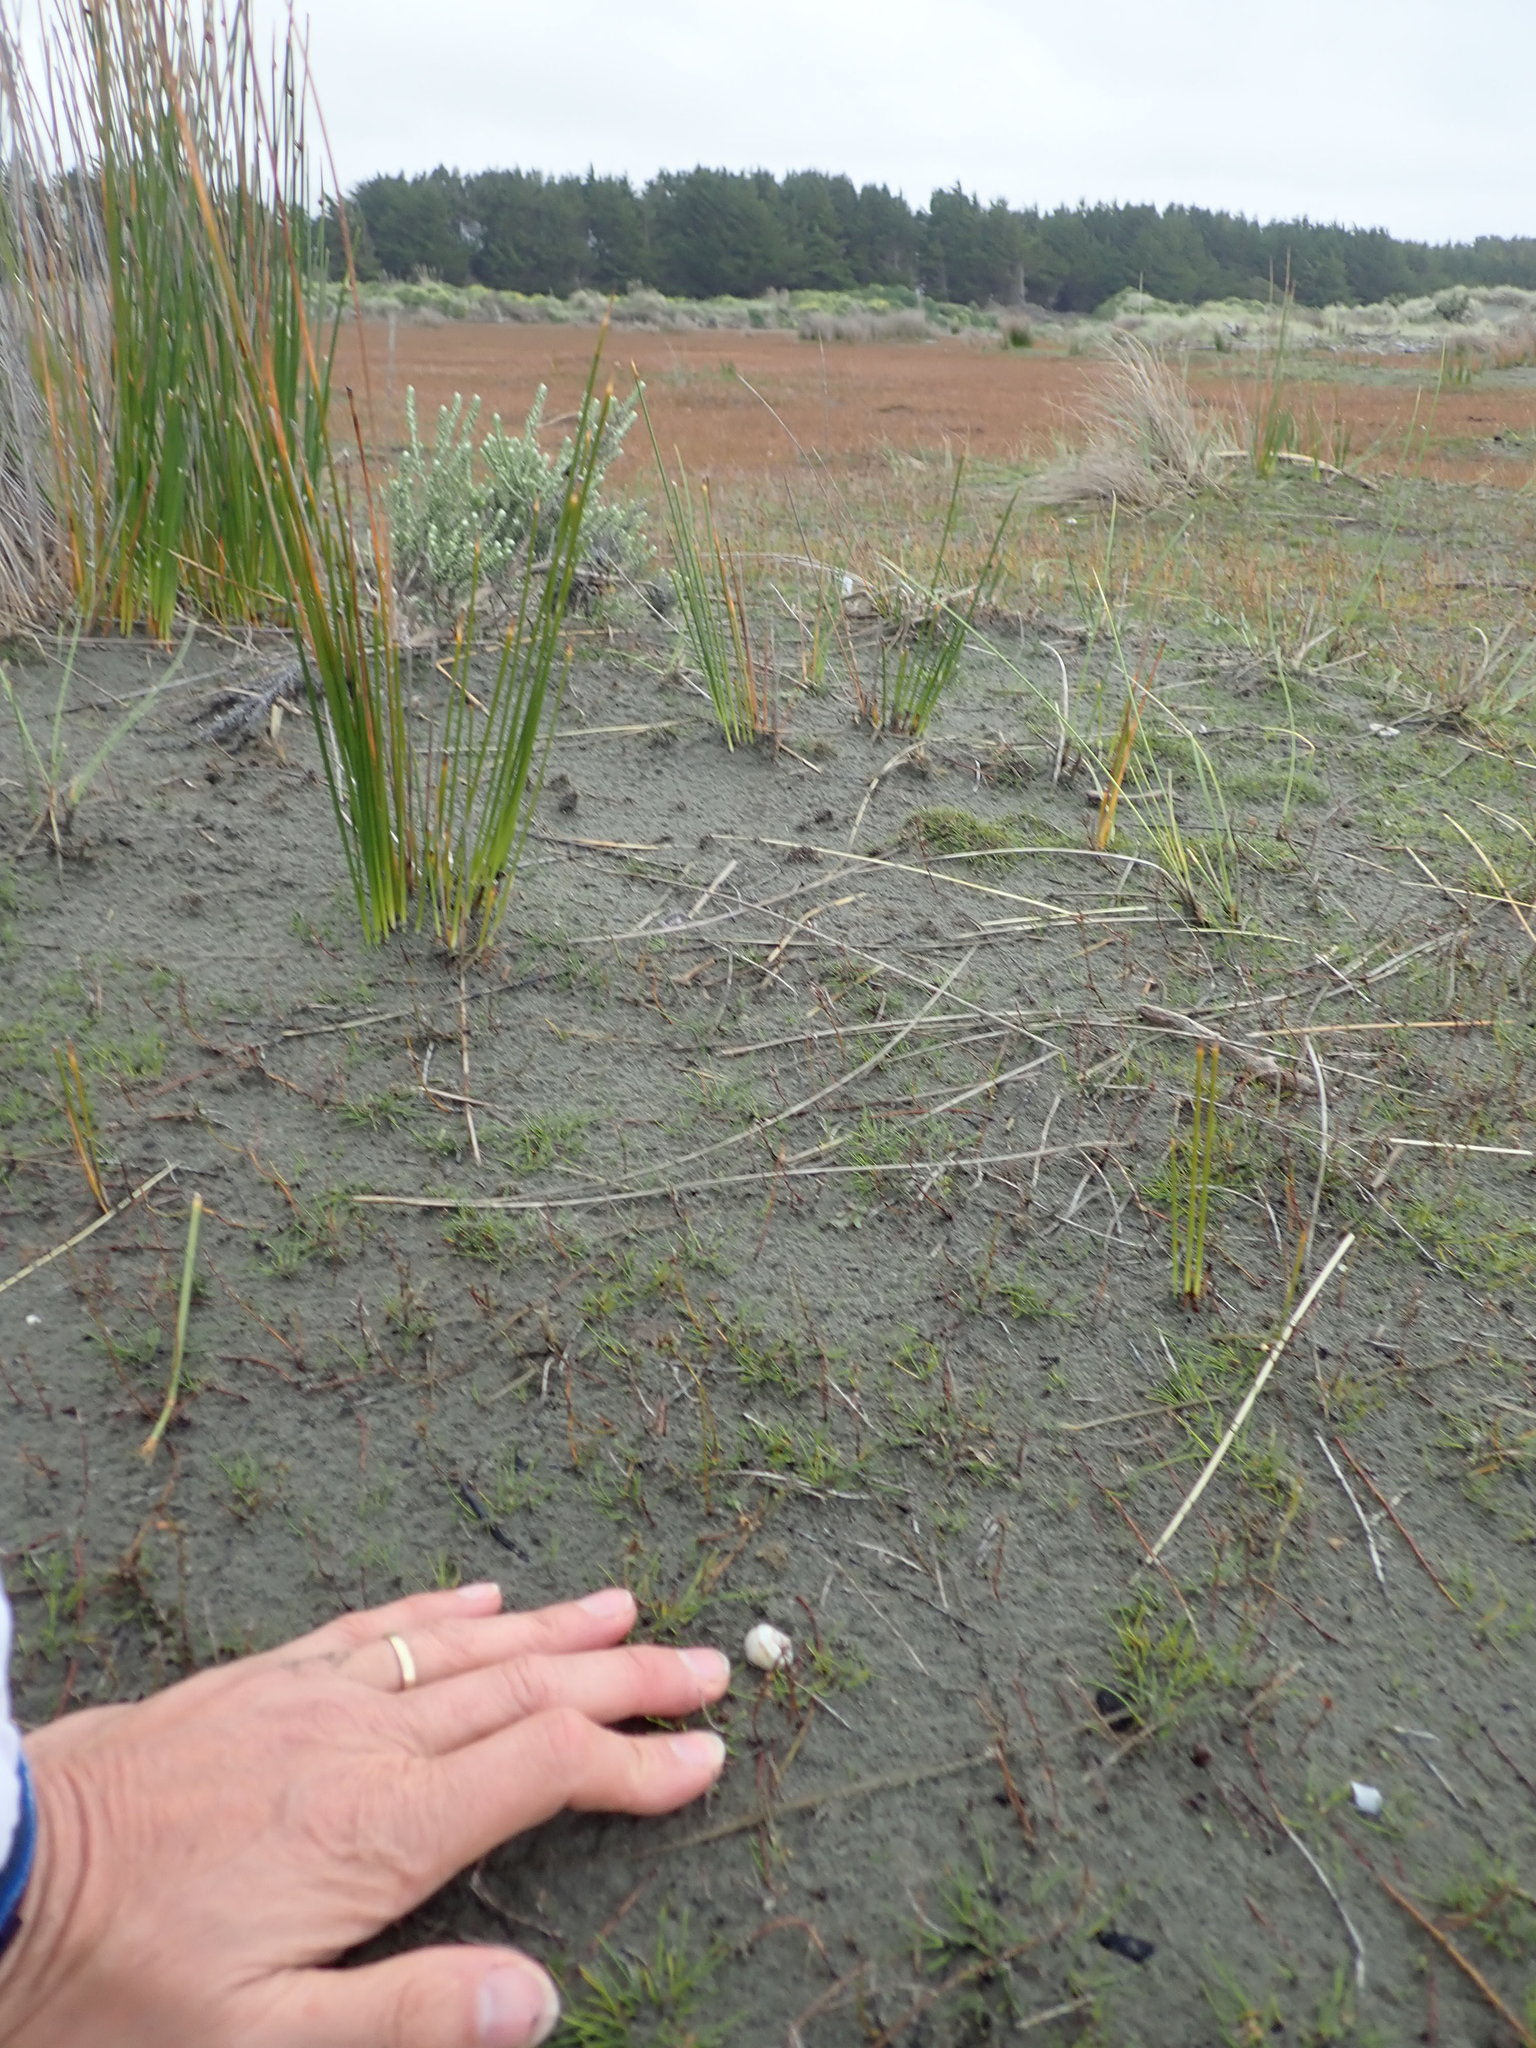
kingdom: Animalia
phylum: Mollusca
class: Gastropoda
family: Amphibolidae
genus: Amphibola
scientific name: Amphibola crenata
